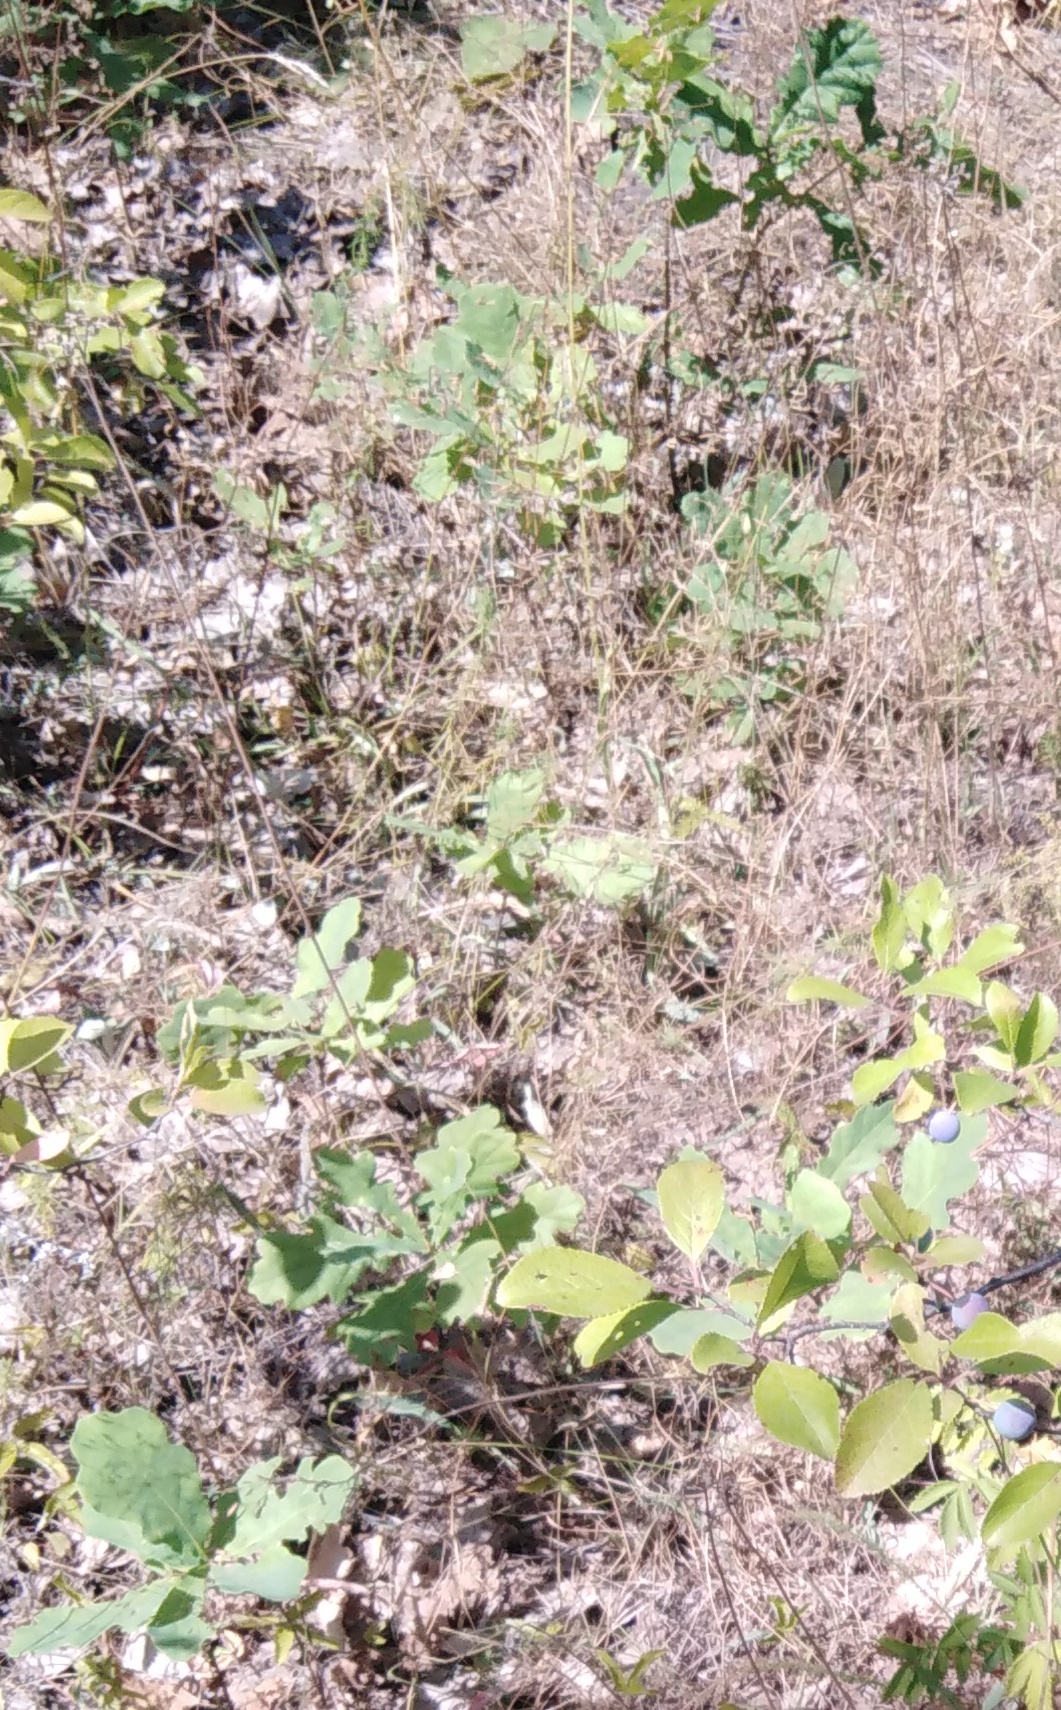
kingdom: Plantae
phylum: Tracheophyta
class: Magnoliopsida
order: Fagales
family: Fagaceae
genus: Quercus
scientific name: Quercus robur
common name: Pedunculate oak
